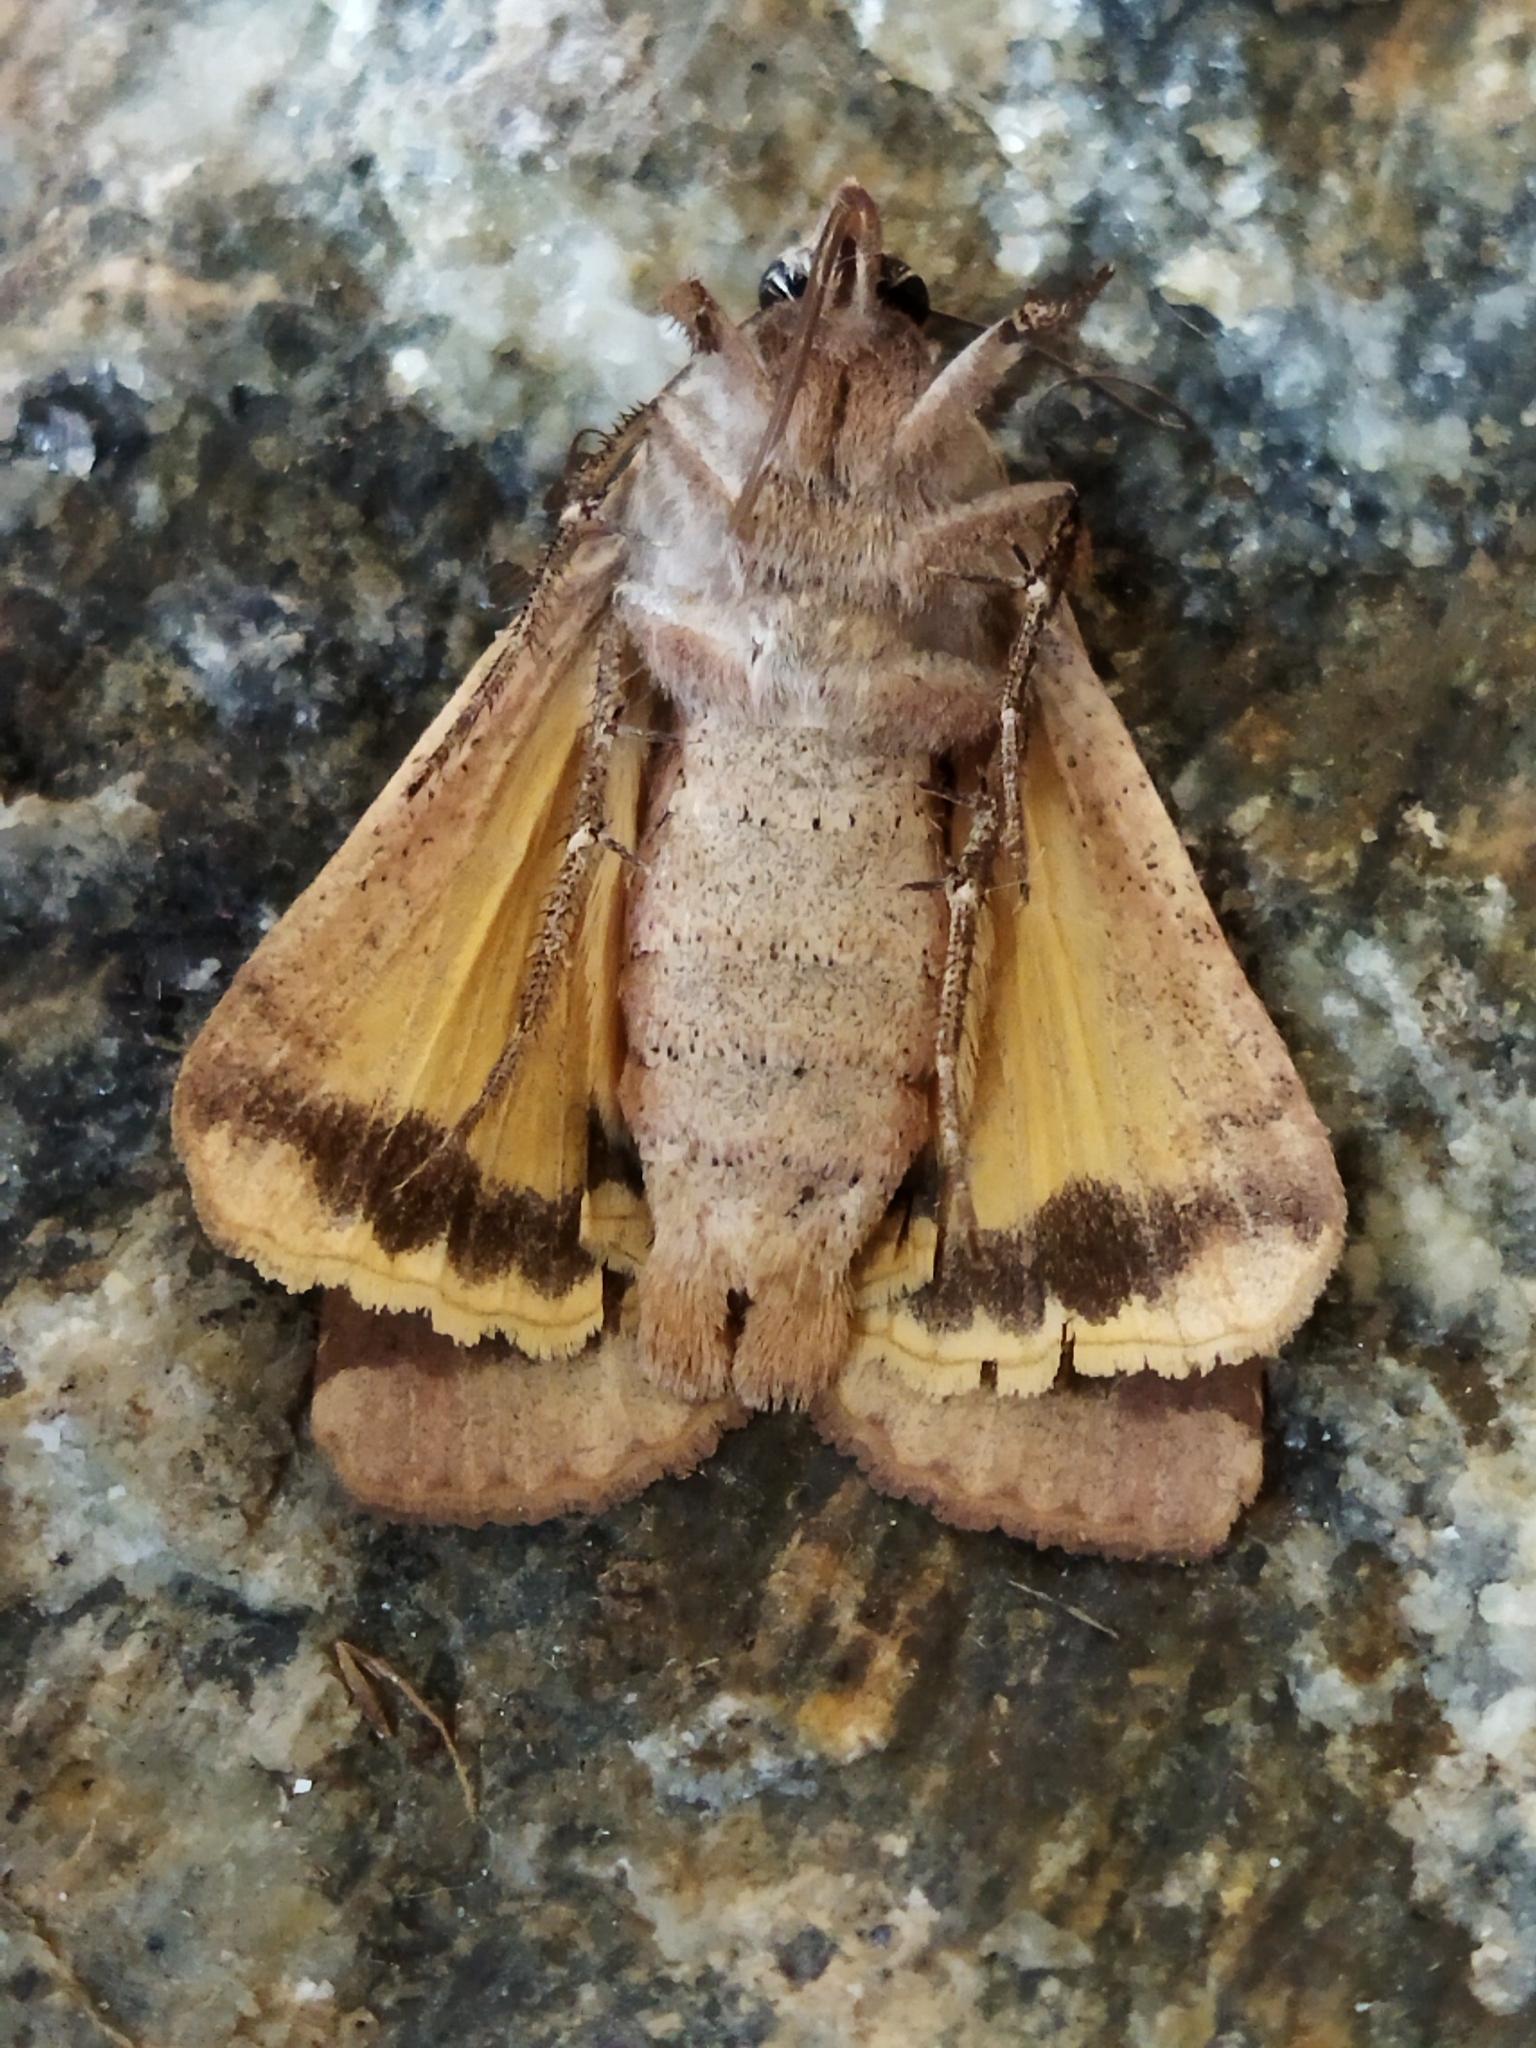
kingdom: Animalia
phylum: Arthropoda
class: Insecta
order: Lepidoptera
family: Noctuidae
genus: Noctua
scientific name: Noctua pronuba
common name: Large yellow underwing
